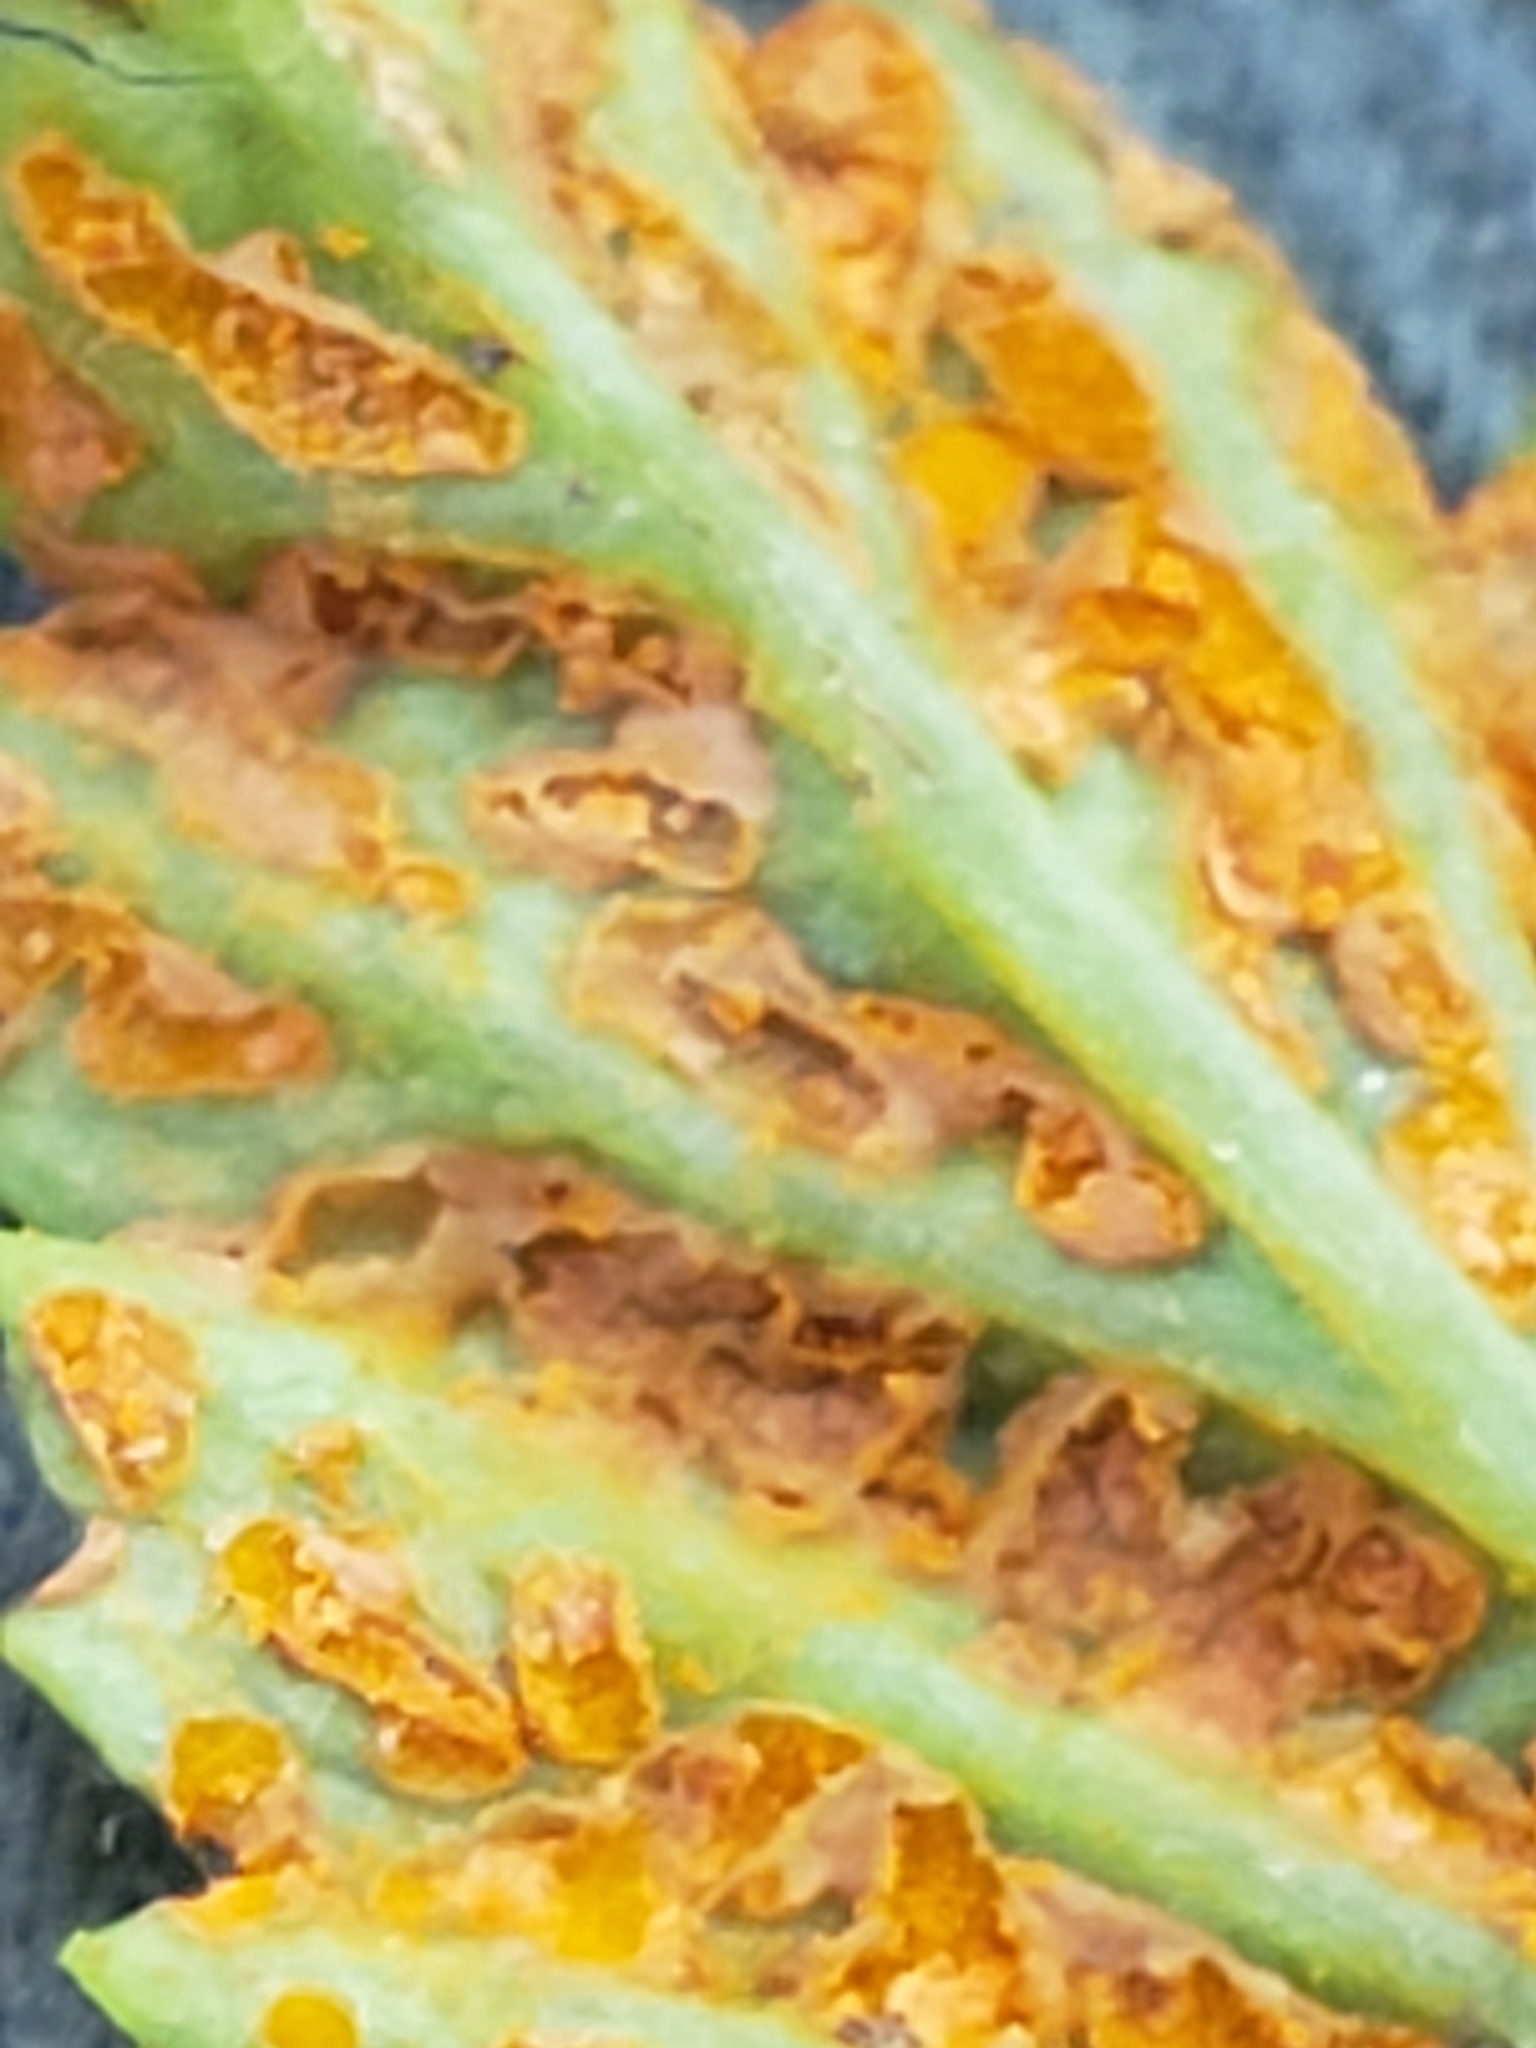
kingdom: Fungi
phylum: Basidiomycota
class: Pucciniomycetes
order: Pucciniales
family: Phragmidiaceae
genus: Arthuriomyces
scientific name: Arthuriomyces peckianus
